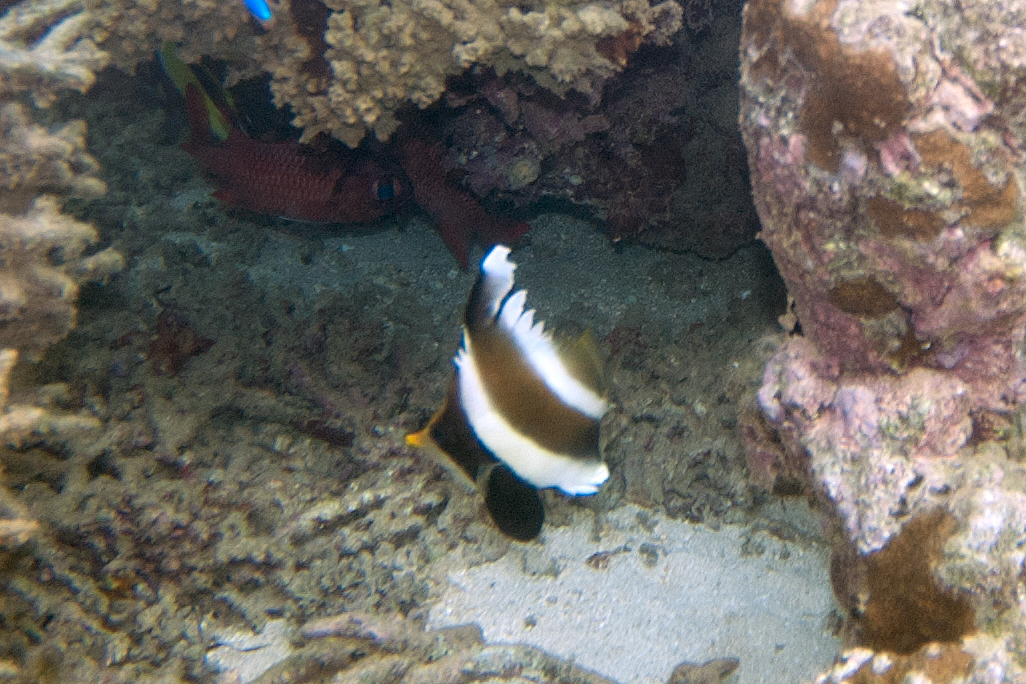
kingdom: Animalia
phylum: Chordata
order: Perciformes
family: Chaetodontidae
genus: Heniochus
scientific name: Heniochus chrysostomus
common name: Horned bannerfish
